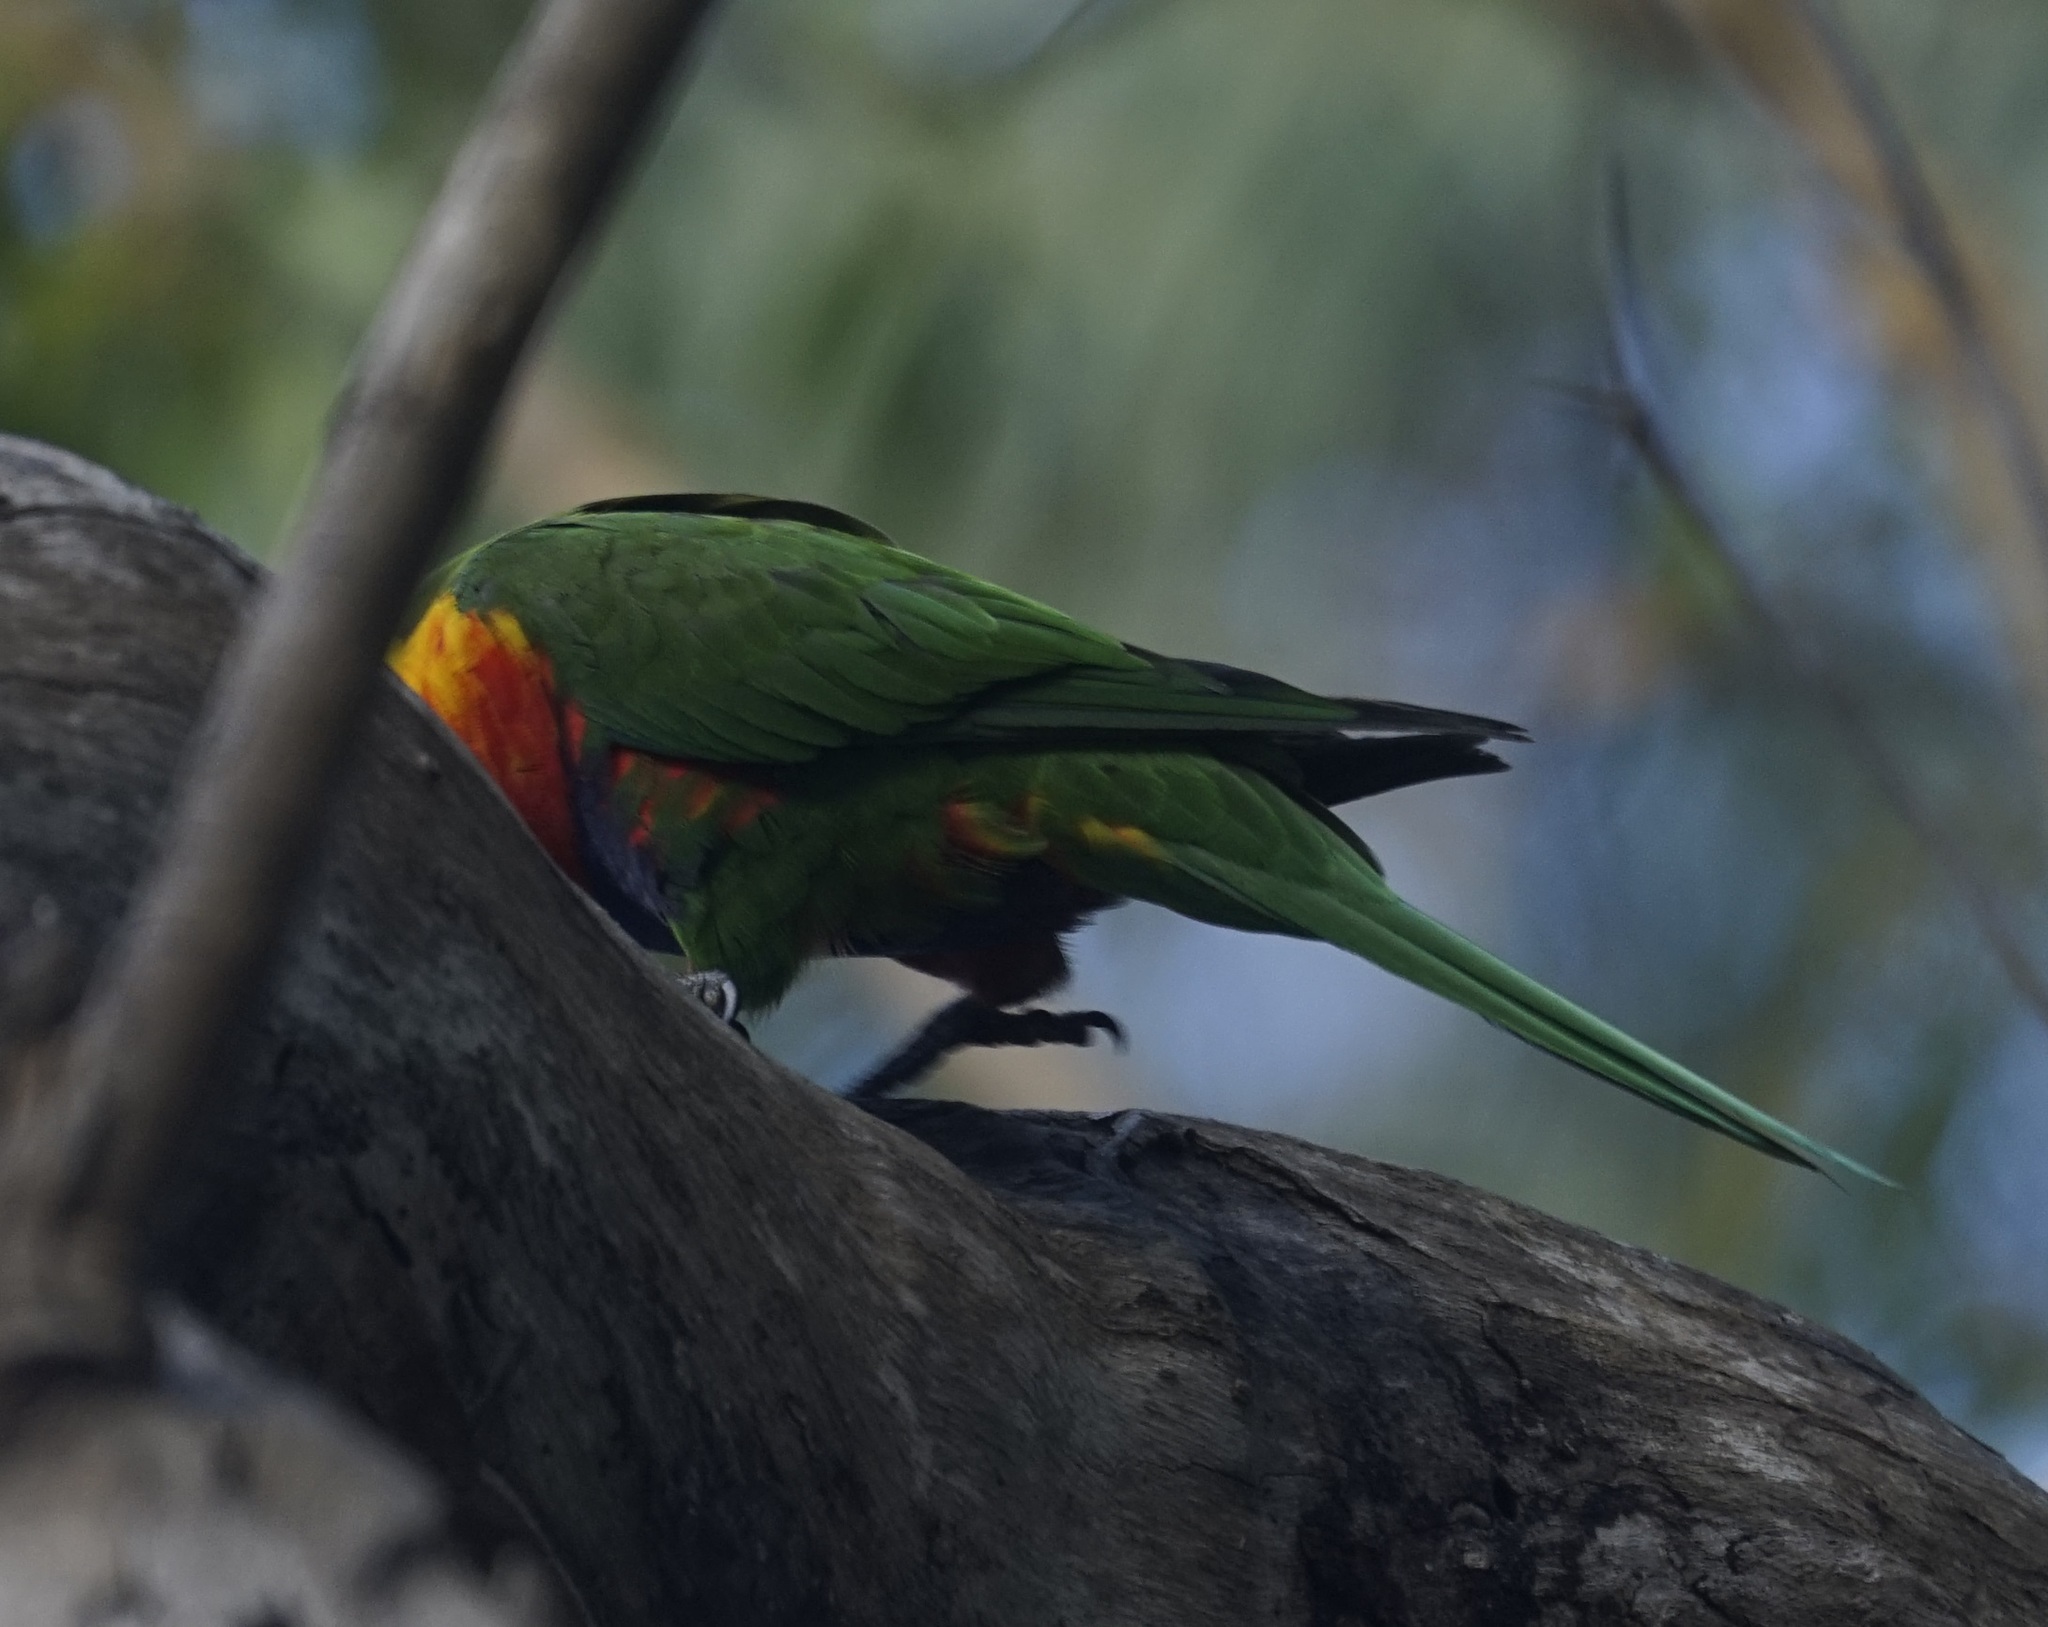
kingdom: Animalia
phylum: Chordata
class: Aves
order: Psittaciformes
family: Psittacidae
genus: Trichoglossus
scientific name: Trichoglossus haematodus
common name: Coconut lorikeet
